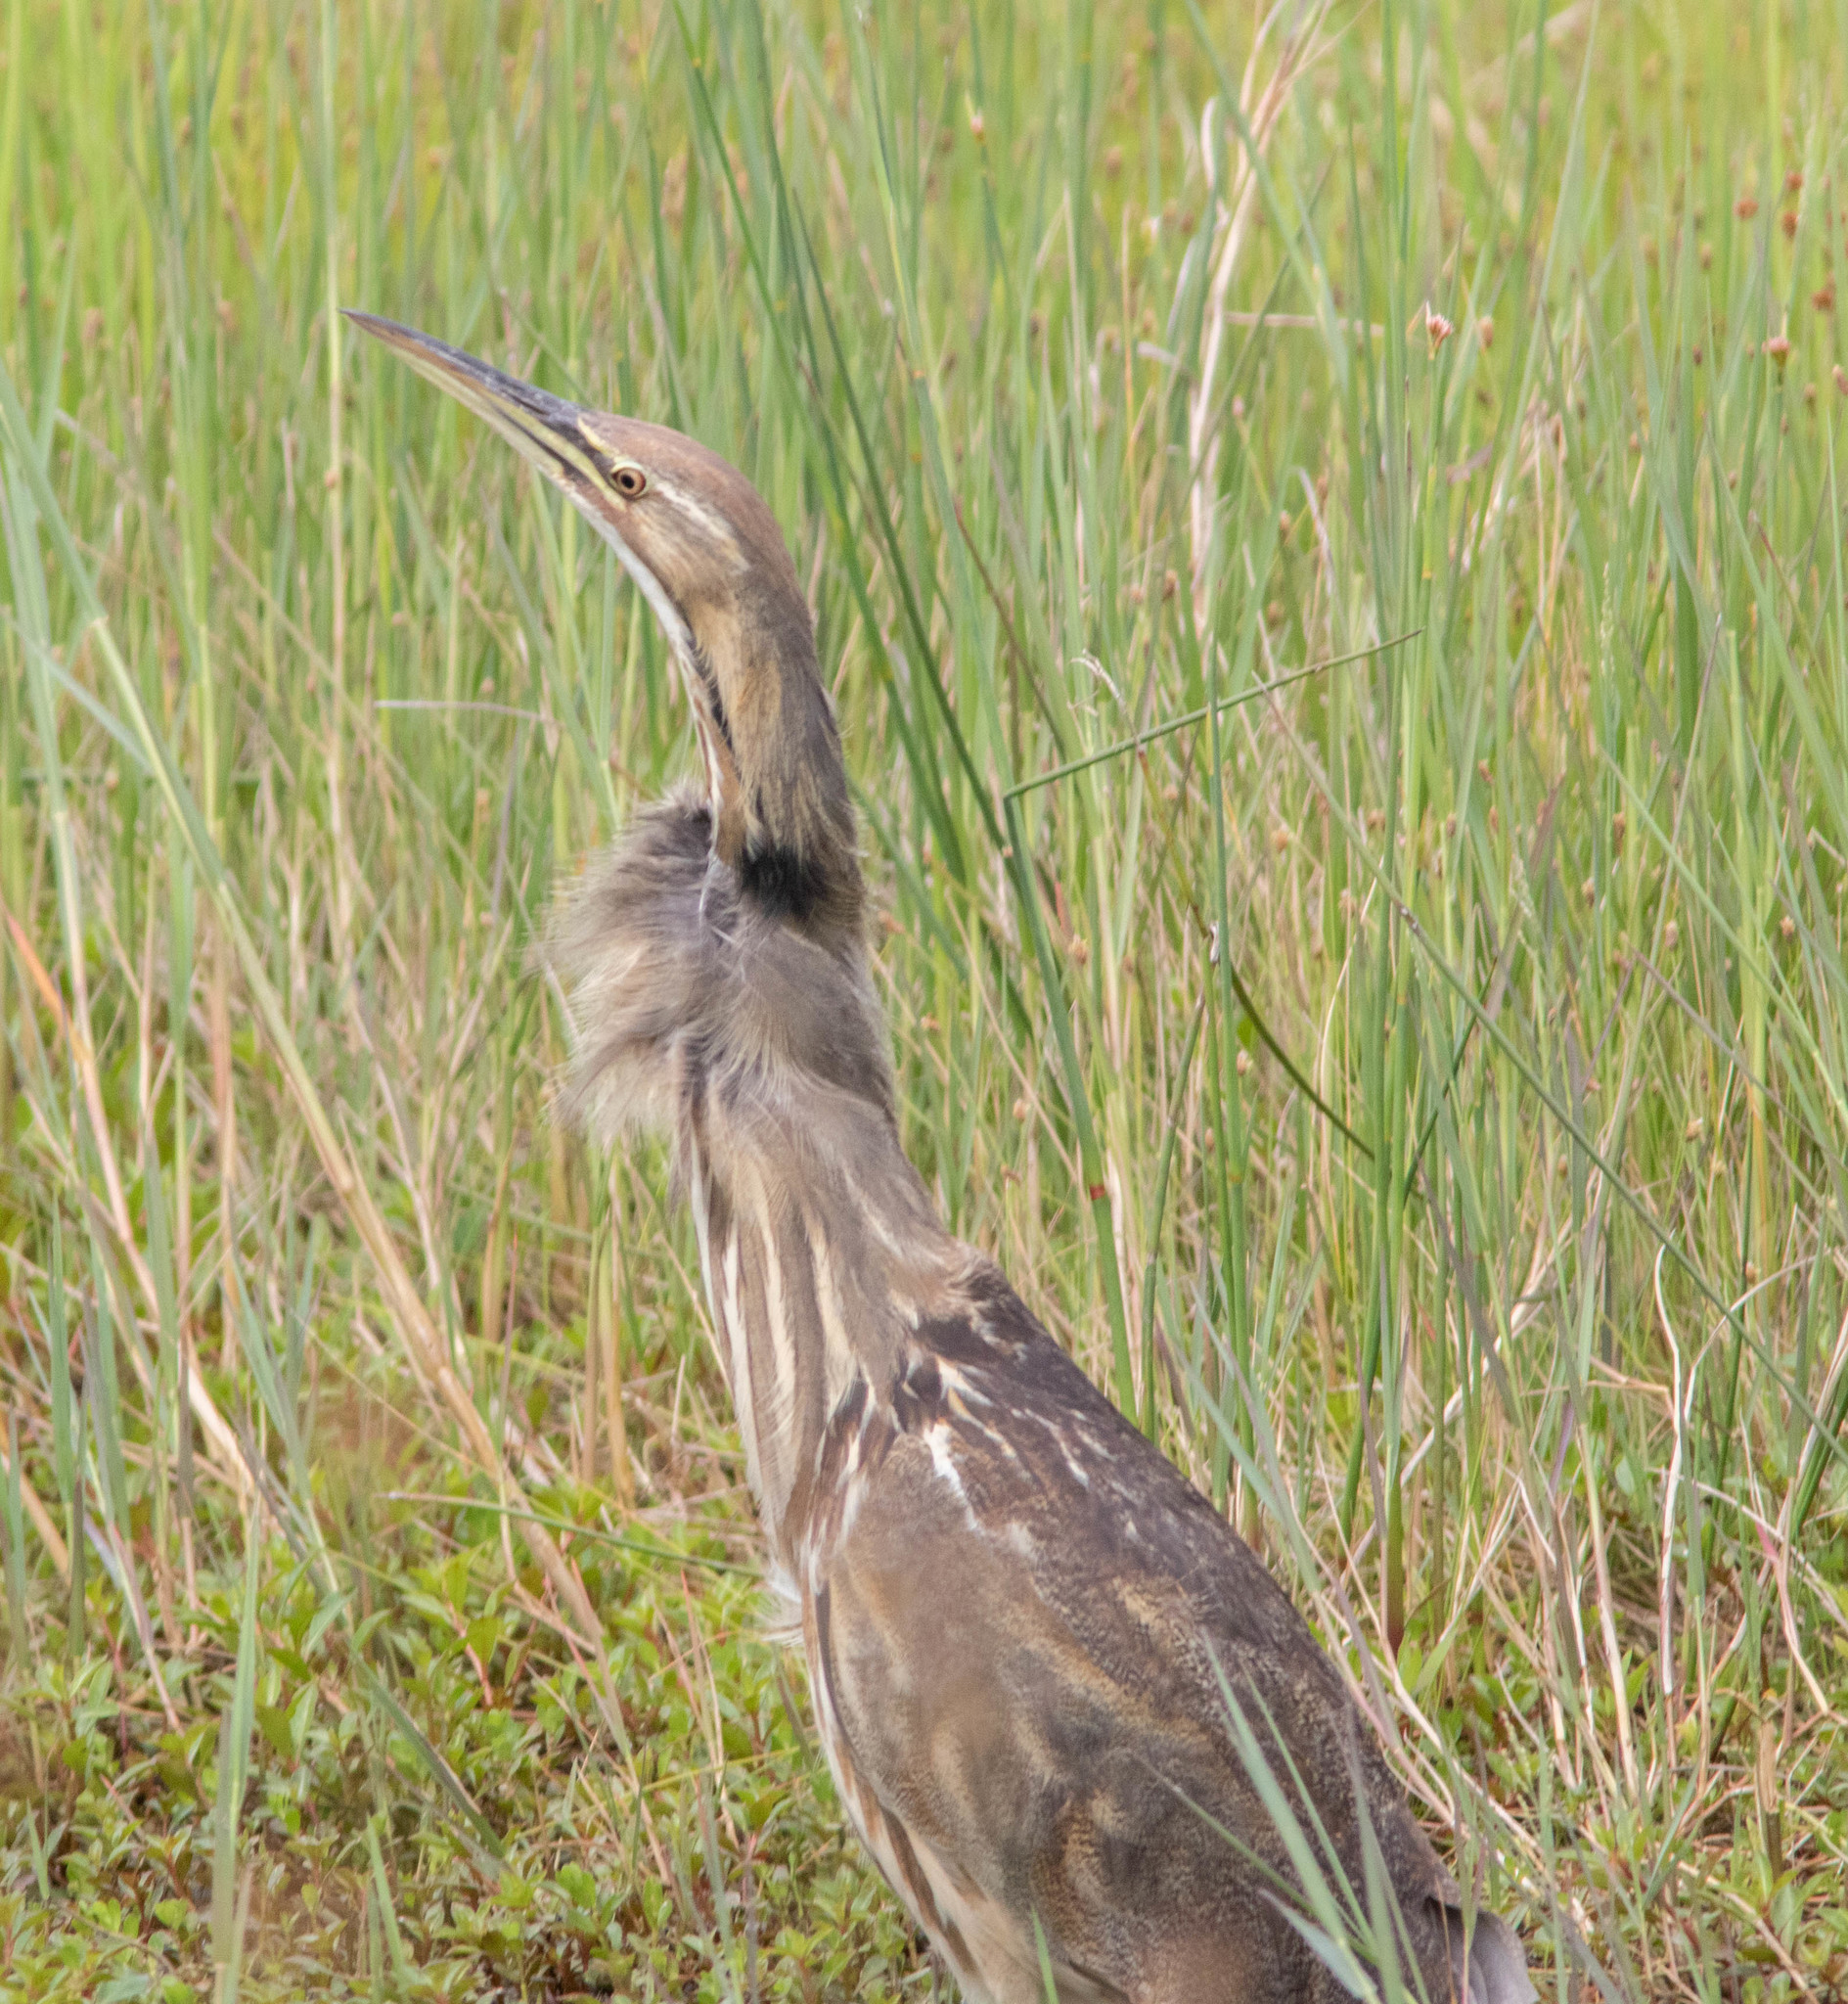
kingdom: Animalia
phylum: Chordata
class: Aves
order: Pelecaniformes
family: Ardeidae
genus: Botaurus
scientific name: Botaurus lentiginosus
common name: American bittern
